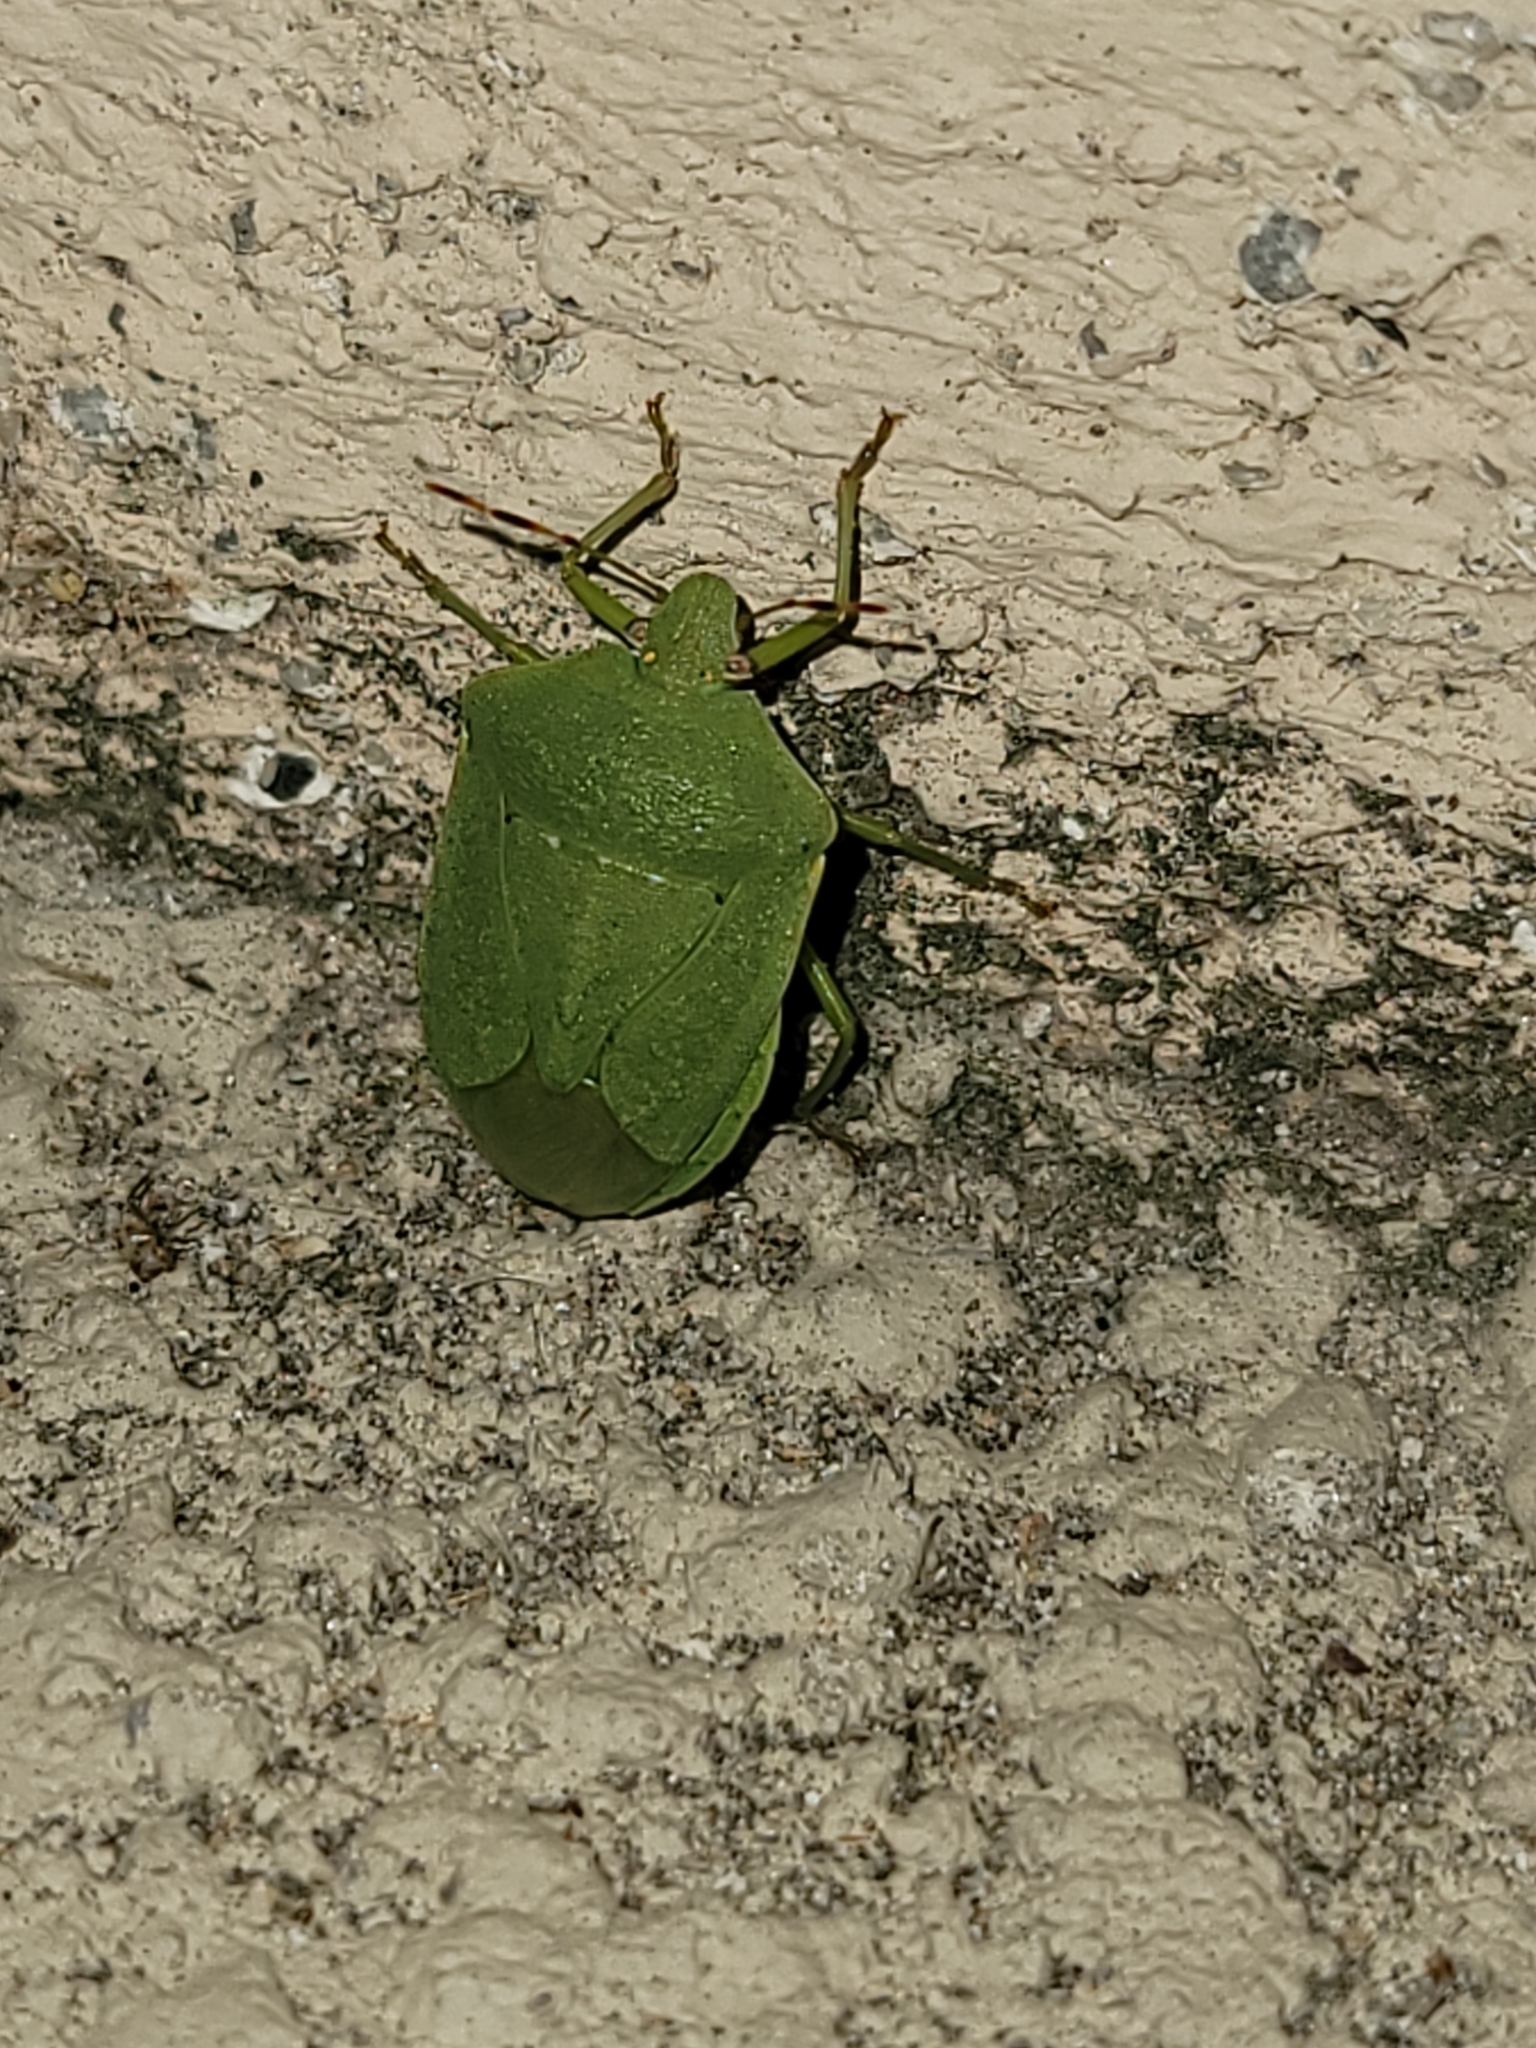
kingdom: Animalia
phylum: Arthropoda
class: Insecta
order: Hemiptera
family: Pentatomidae
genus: Nezara
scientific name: Nezara viridula
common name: Southern green stink bug
